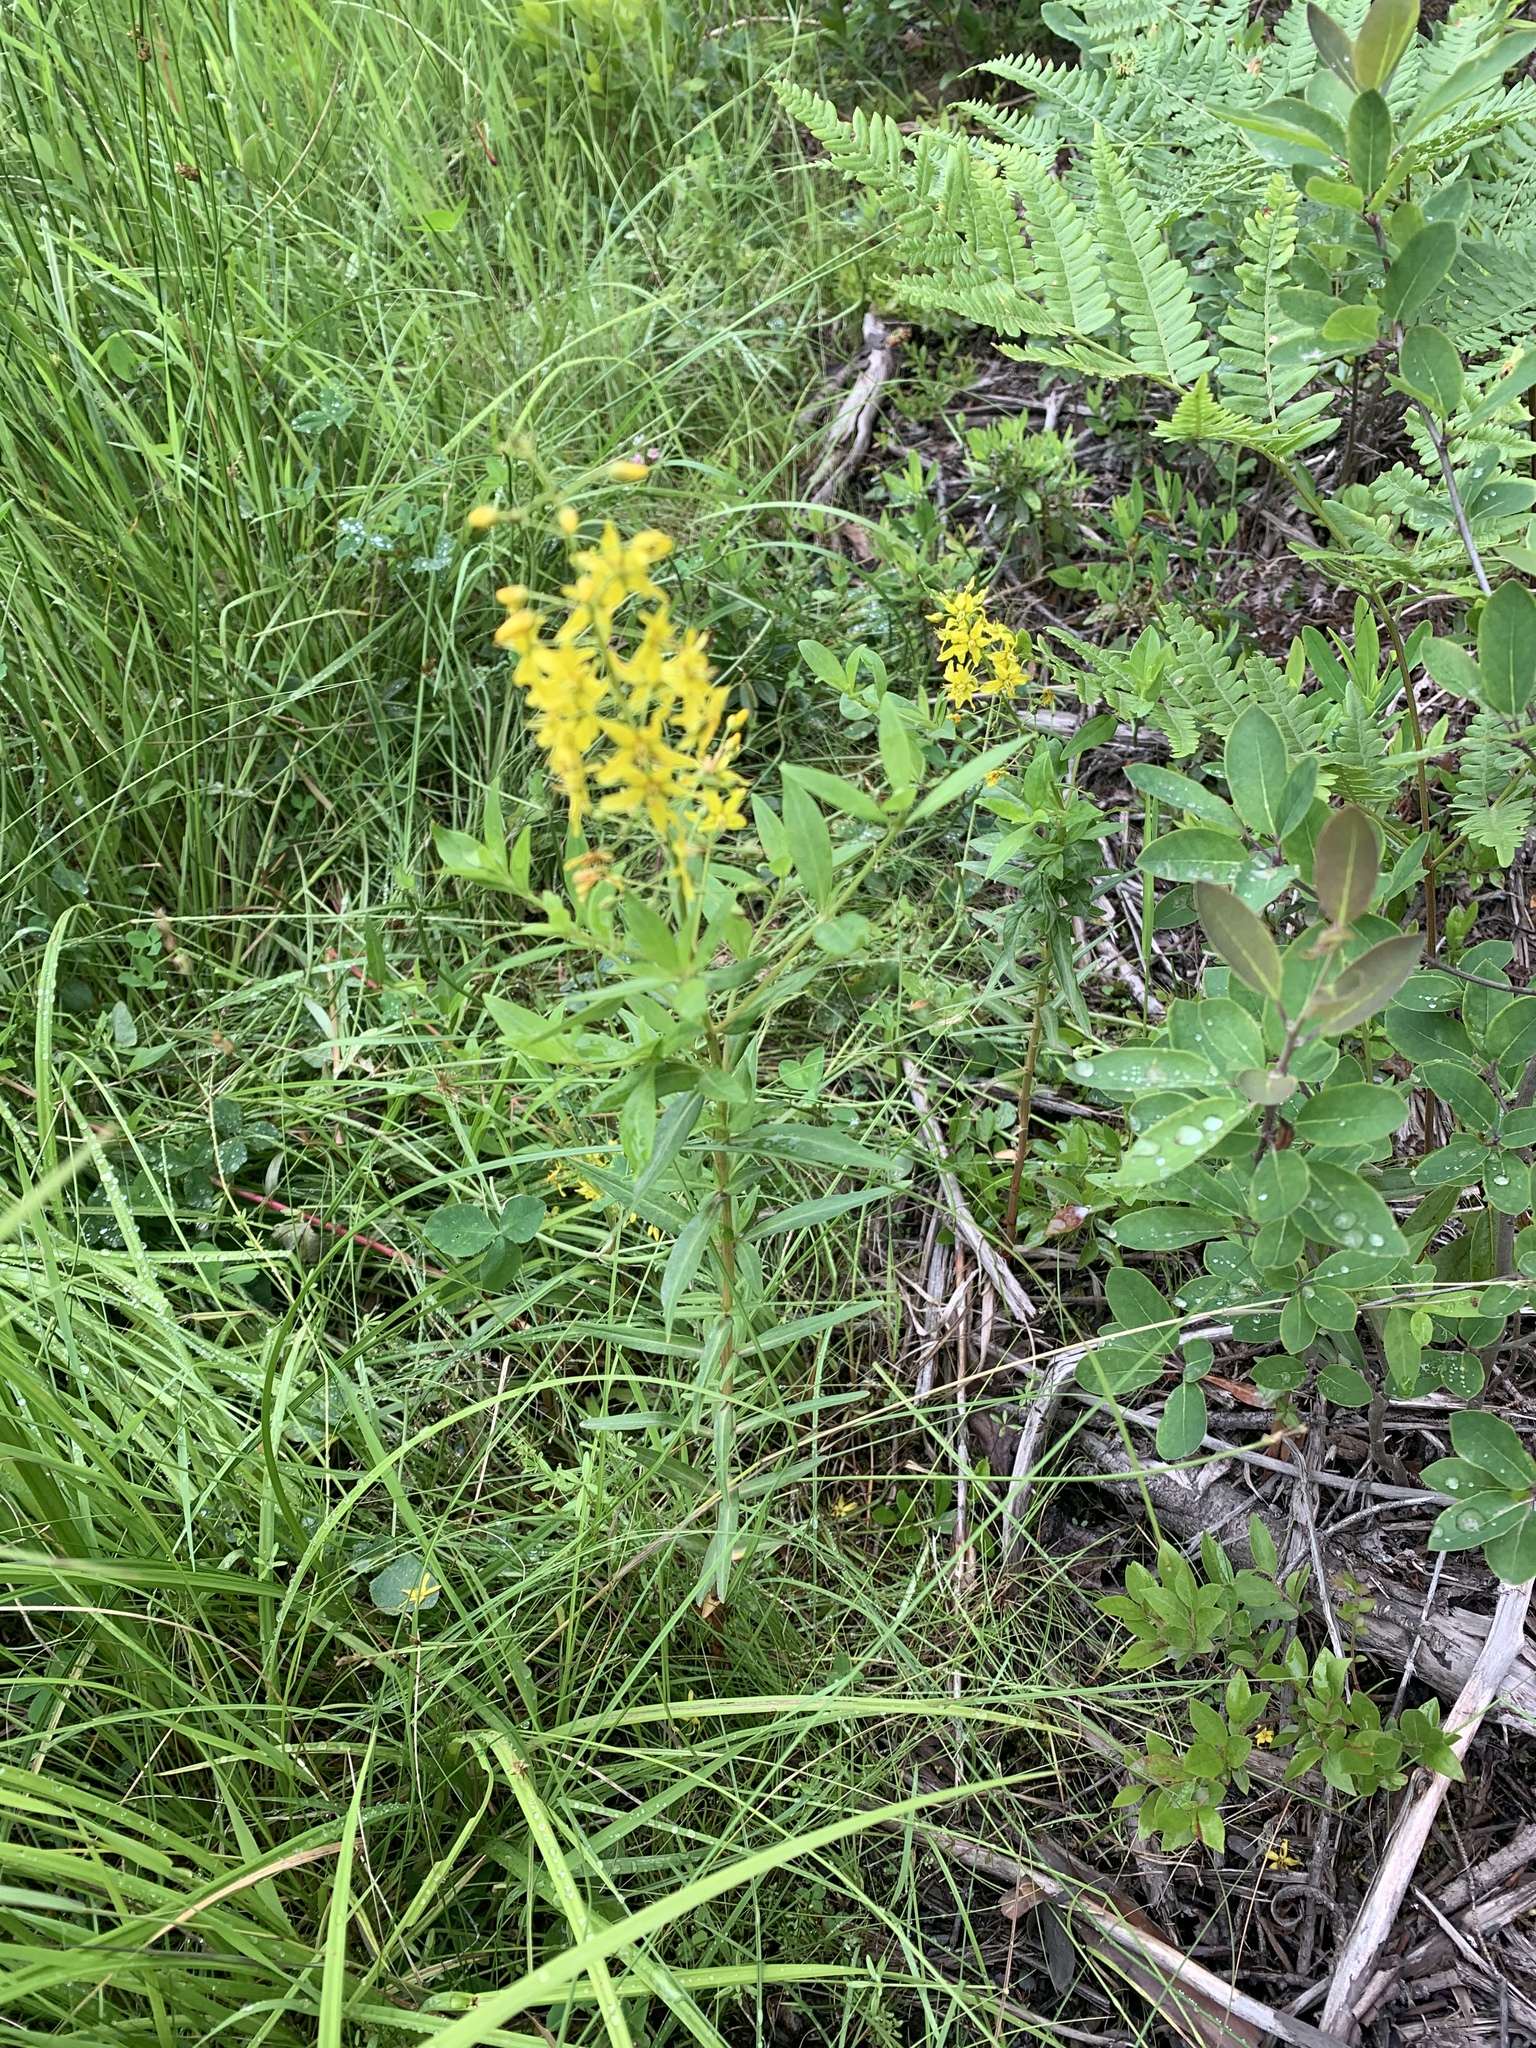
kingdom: Plantae
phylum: Tracheophyta
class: Magnoliopsida
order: Ericales
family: Primulaceae
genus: Lysimachia
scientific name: Lysimachia terrestris
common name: Lake loosestrife
